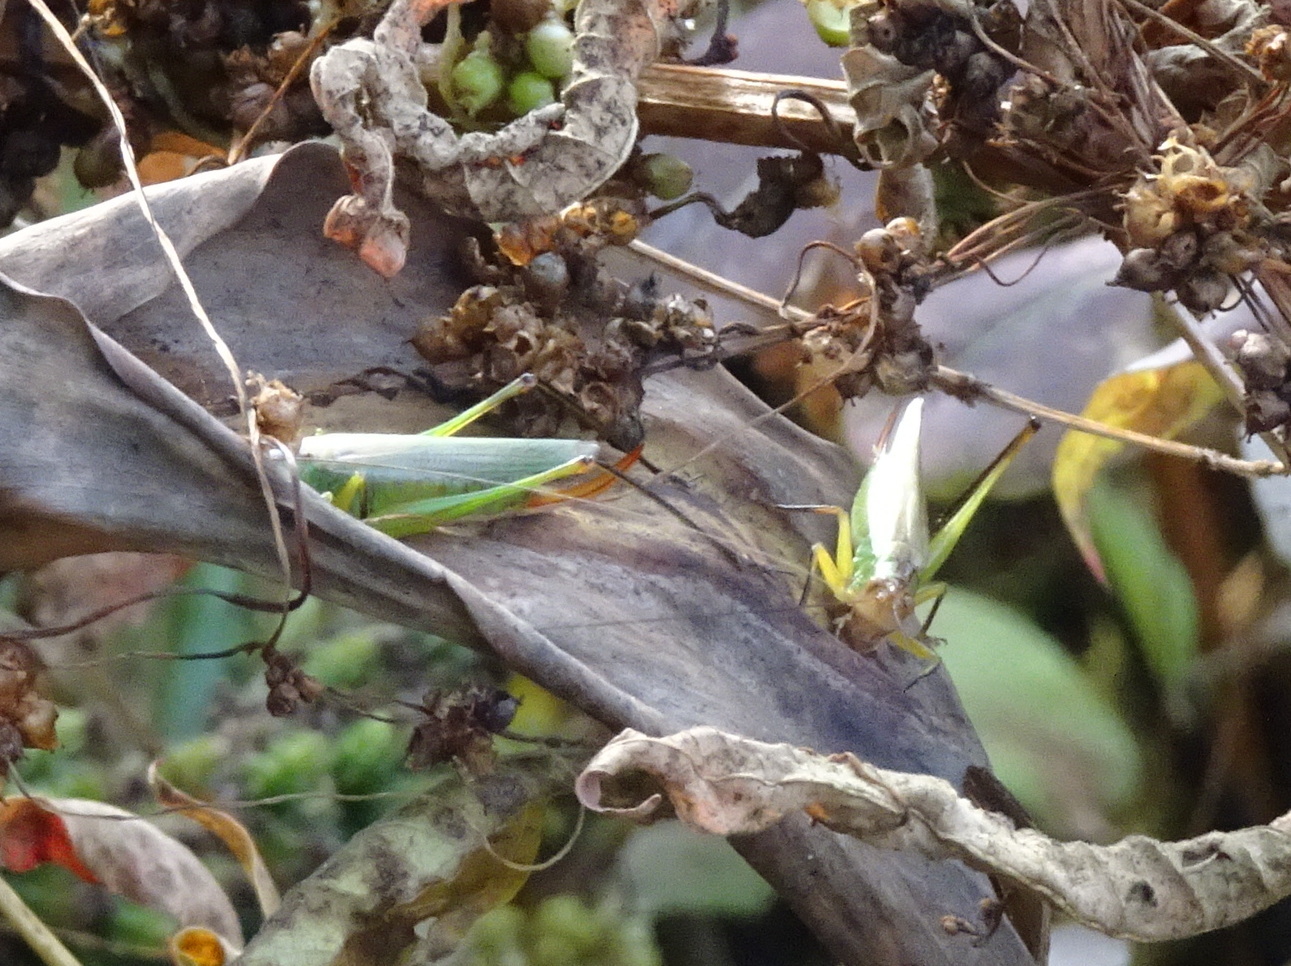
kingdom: Animalia
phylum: Arthropoda
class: Insecta
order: Orthoptera
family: Tettigoniidae
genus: Orchelimum
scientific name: Orchelimum nigripes
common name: Black-legged meadow katydid
